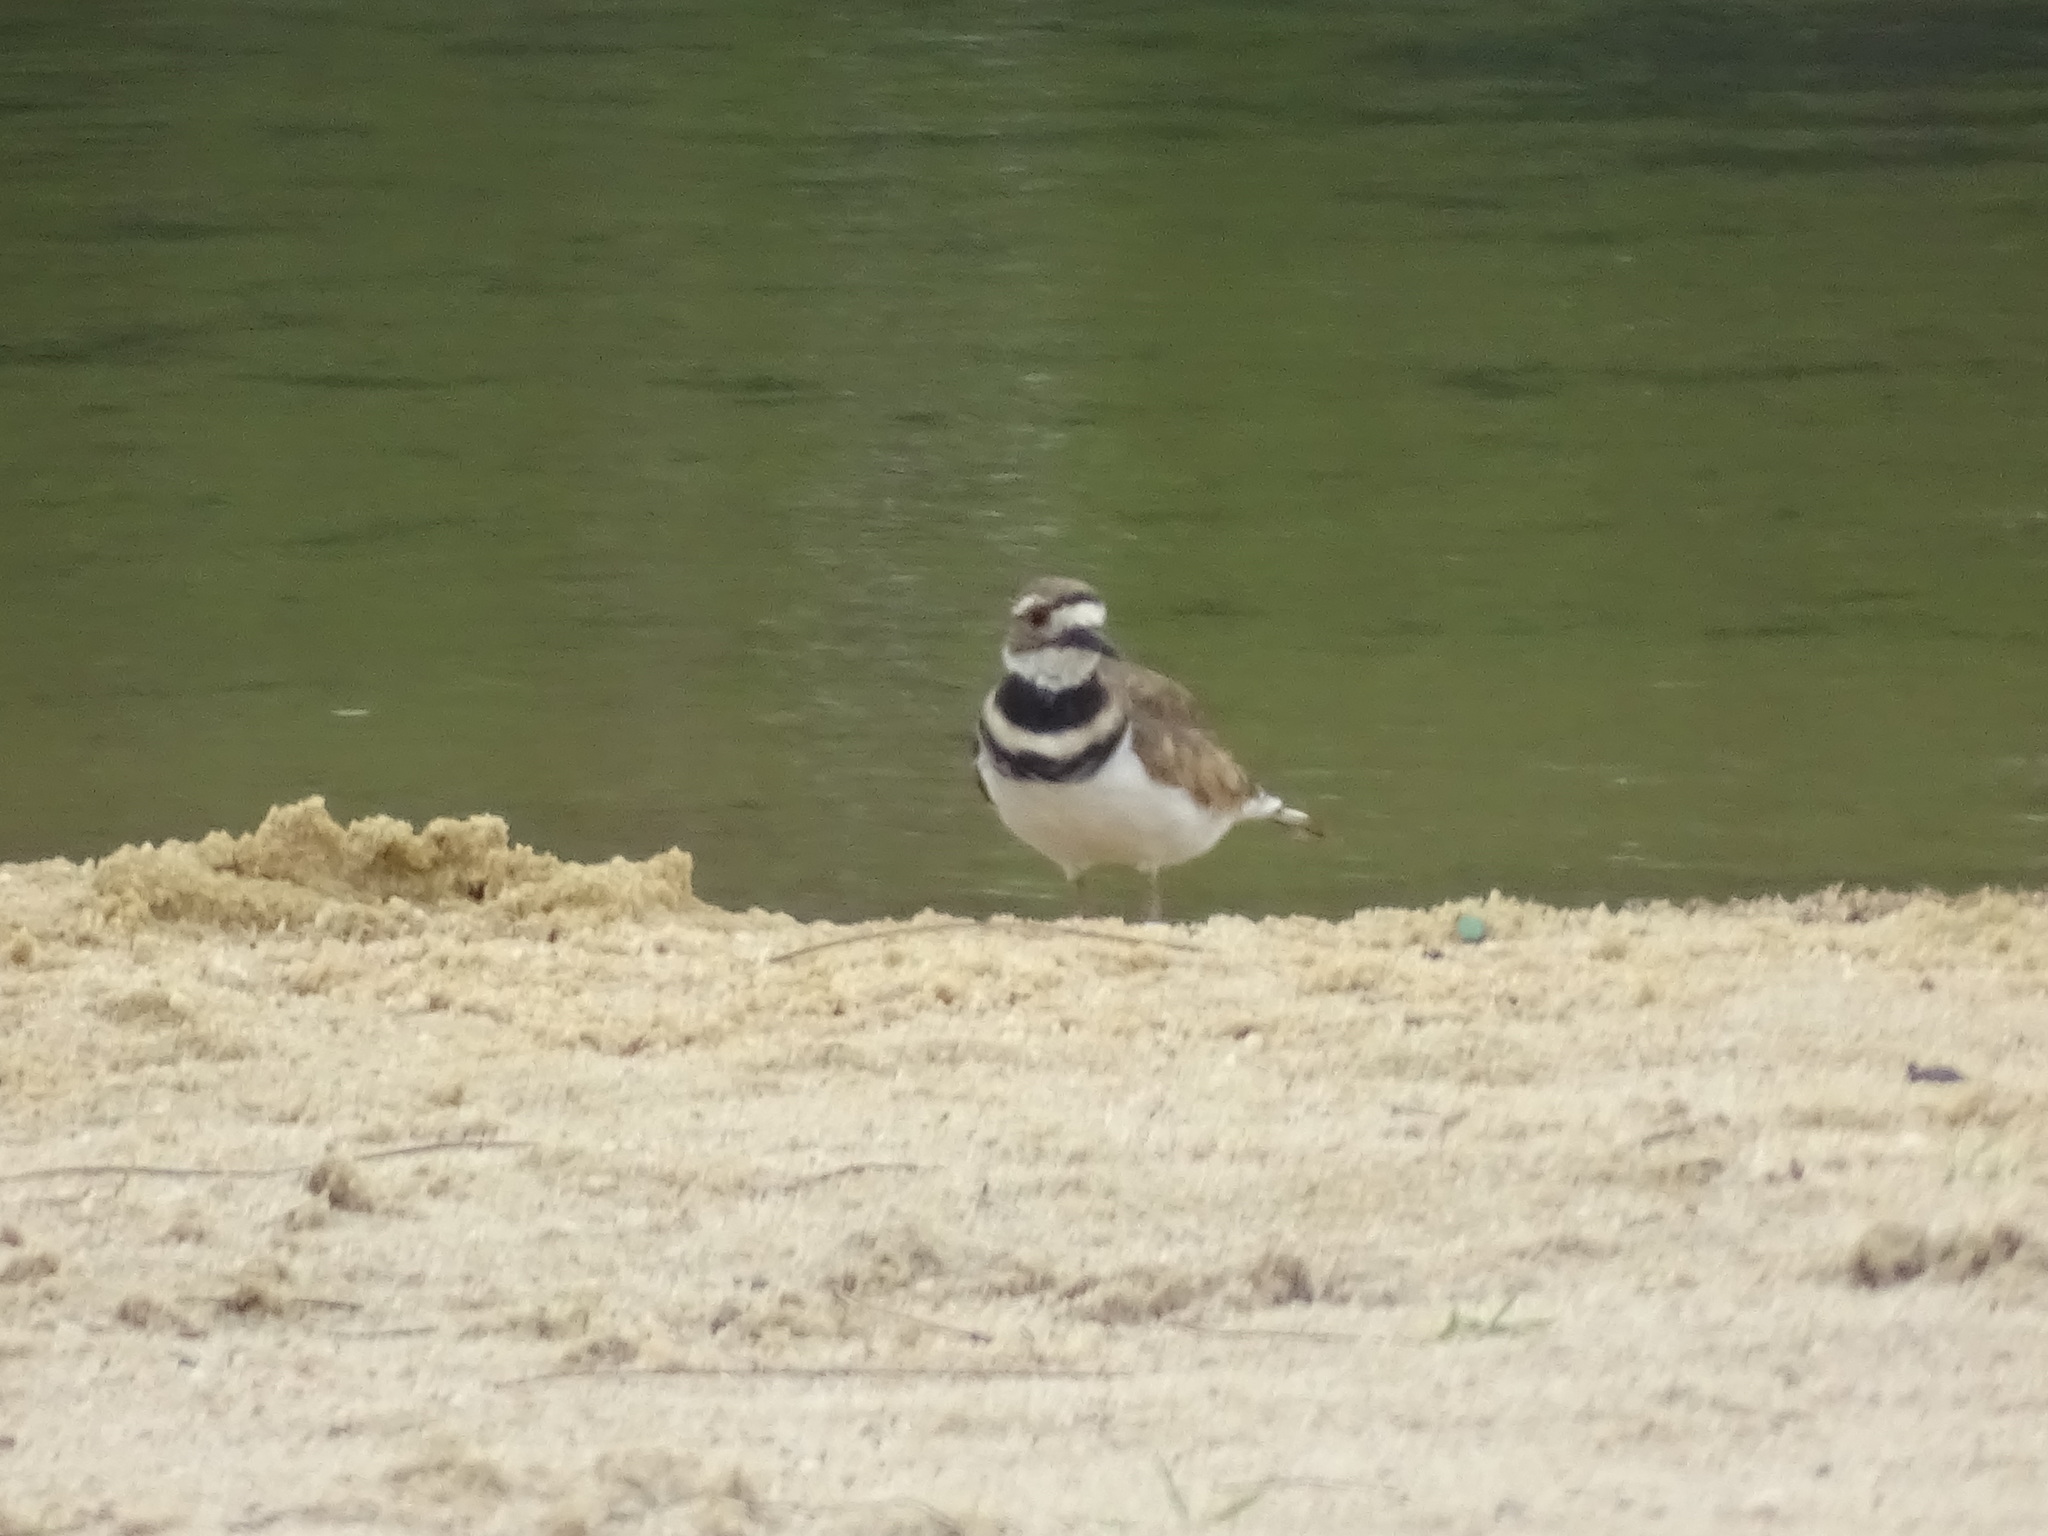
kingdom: Animalia
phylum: Chordata
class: Aves
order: Charadriiformes
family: Charadriidae
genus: Charadrius
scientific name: Charadrius vociferus
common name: Killdeer
